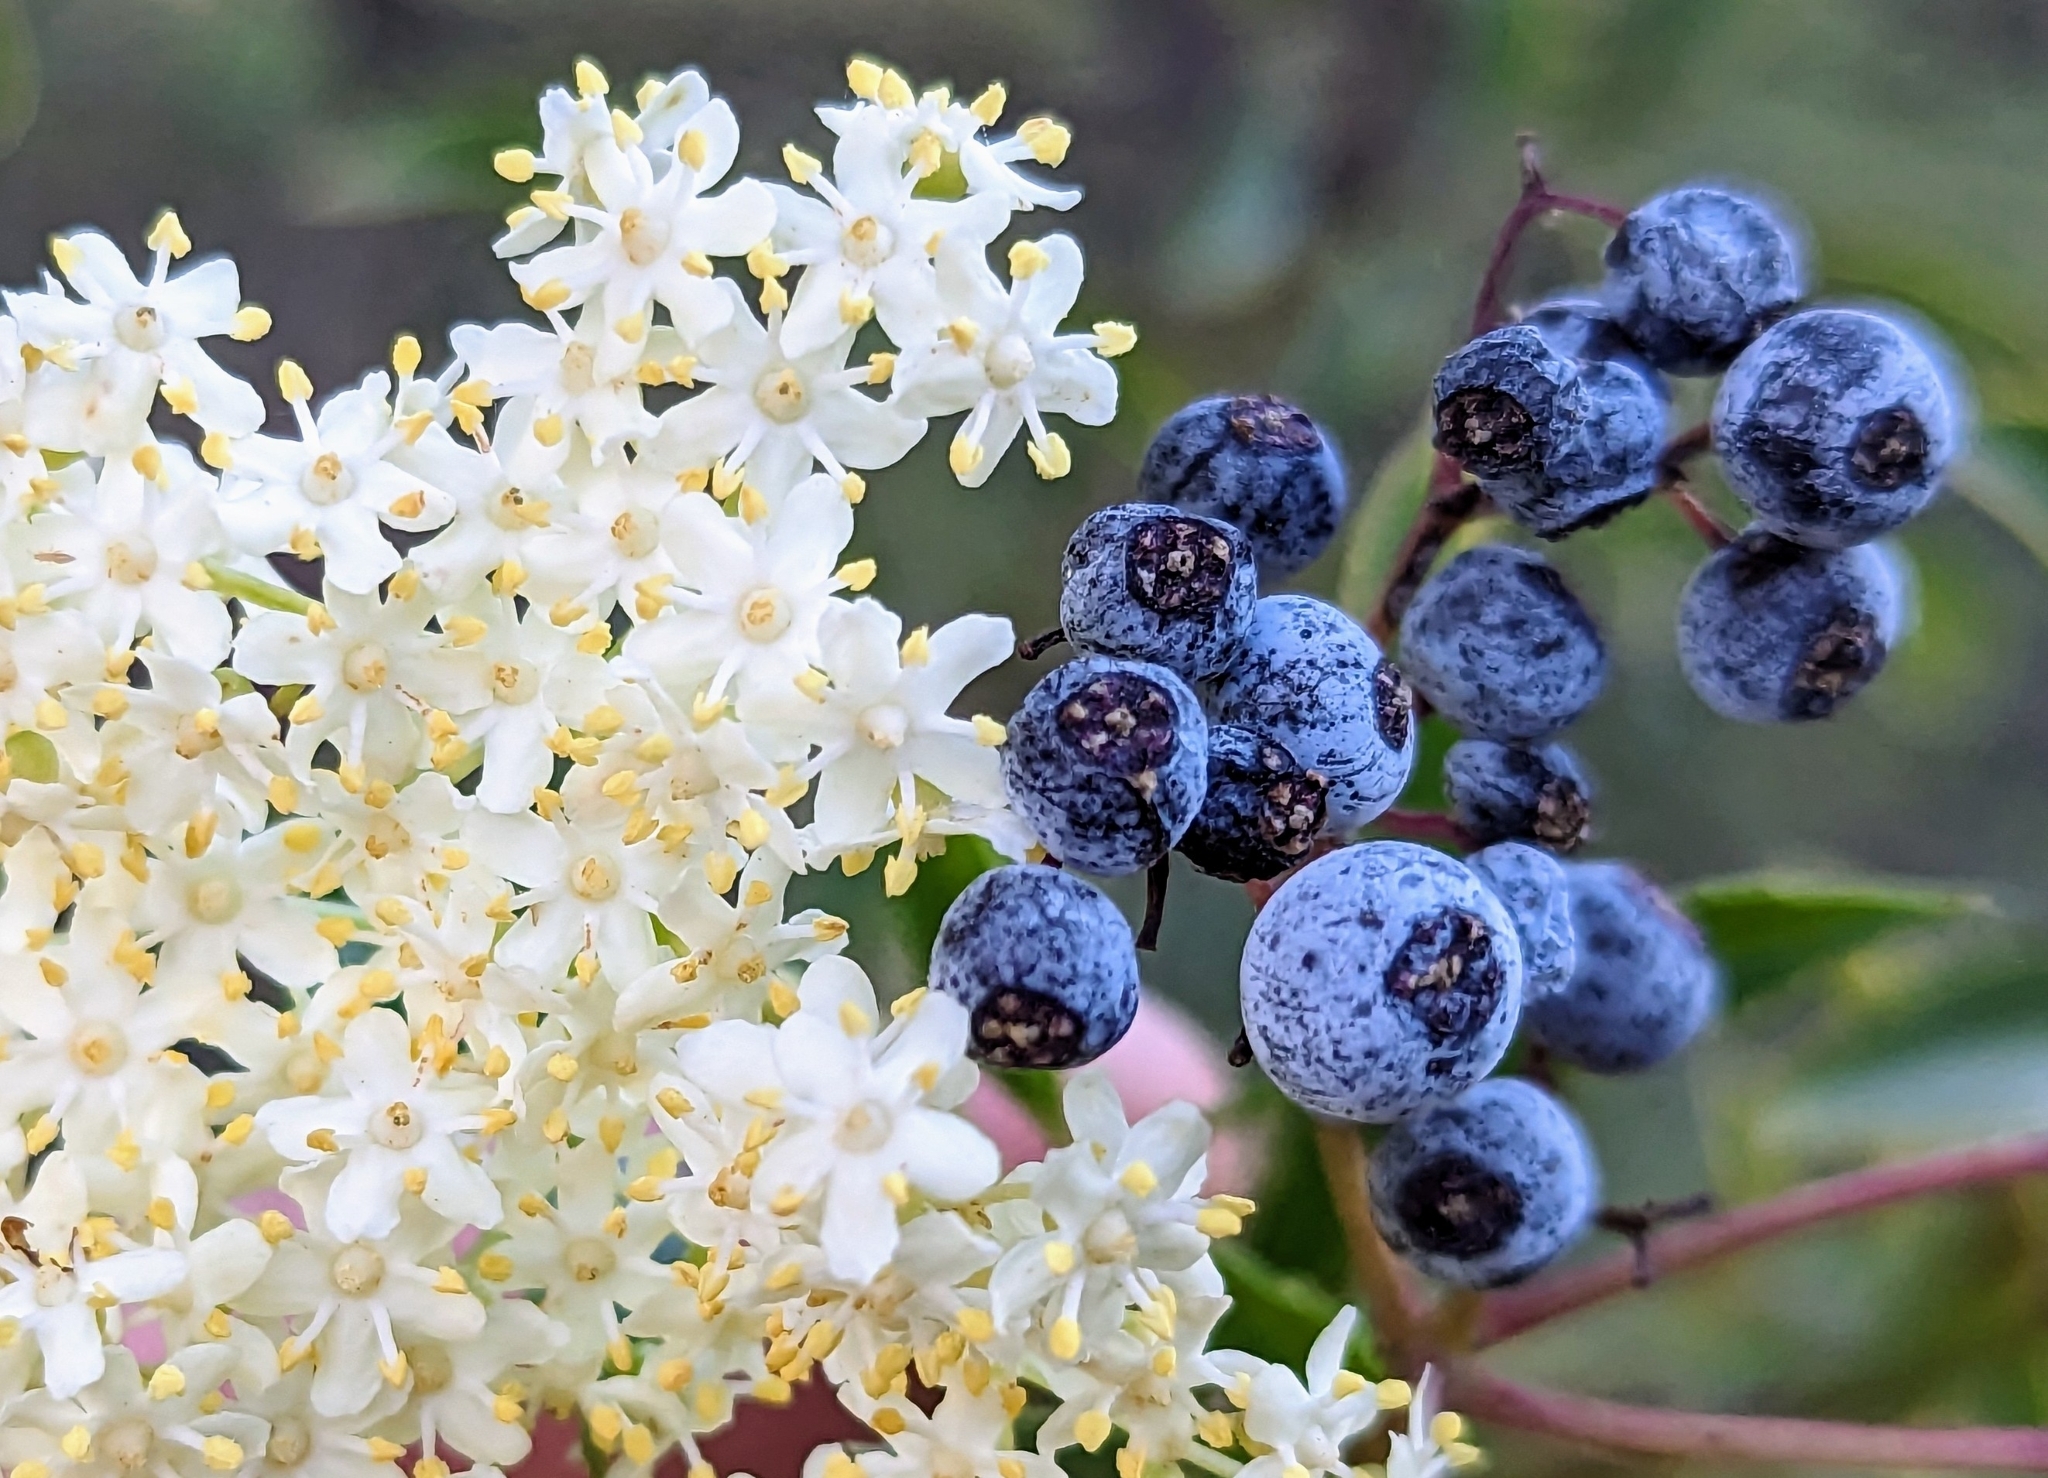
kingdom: Plantae
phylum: Tracheophyta
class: Magnoliopsida
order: Dipsacales
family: Viburnaceae
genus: Sambucus
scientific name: Sambucus cerulea
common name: Blue elder
